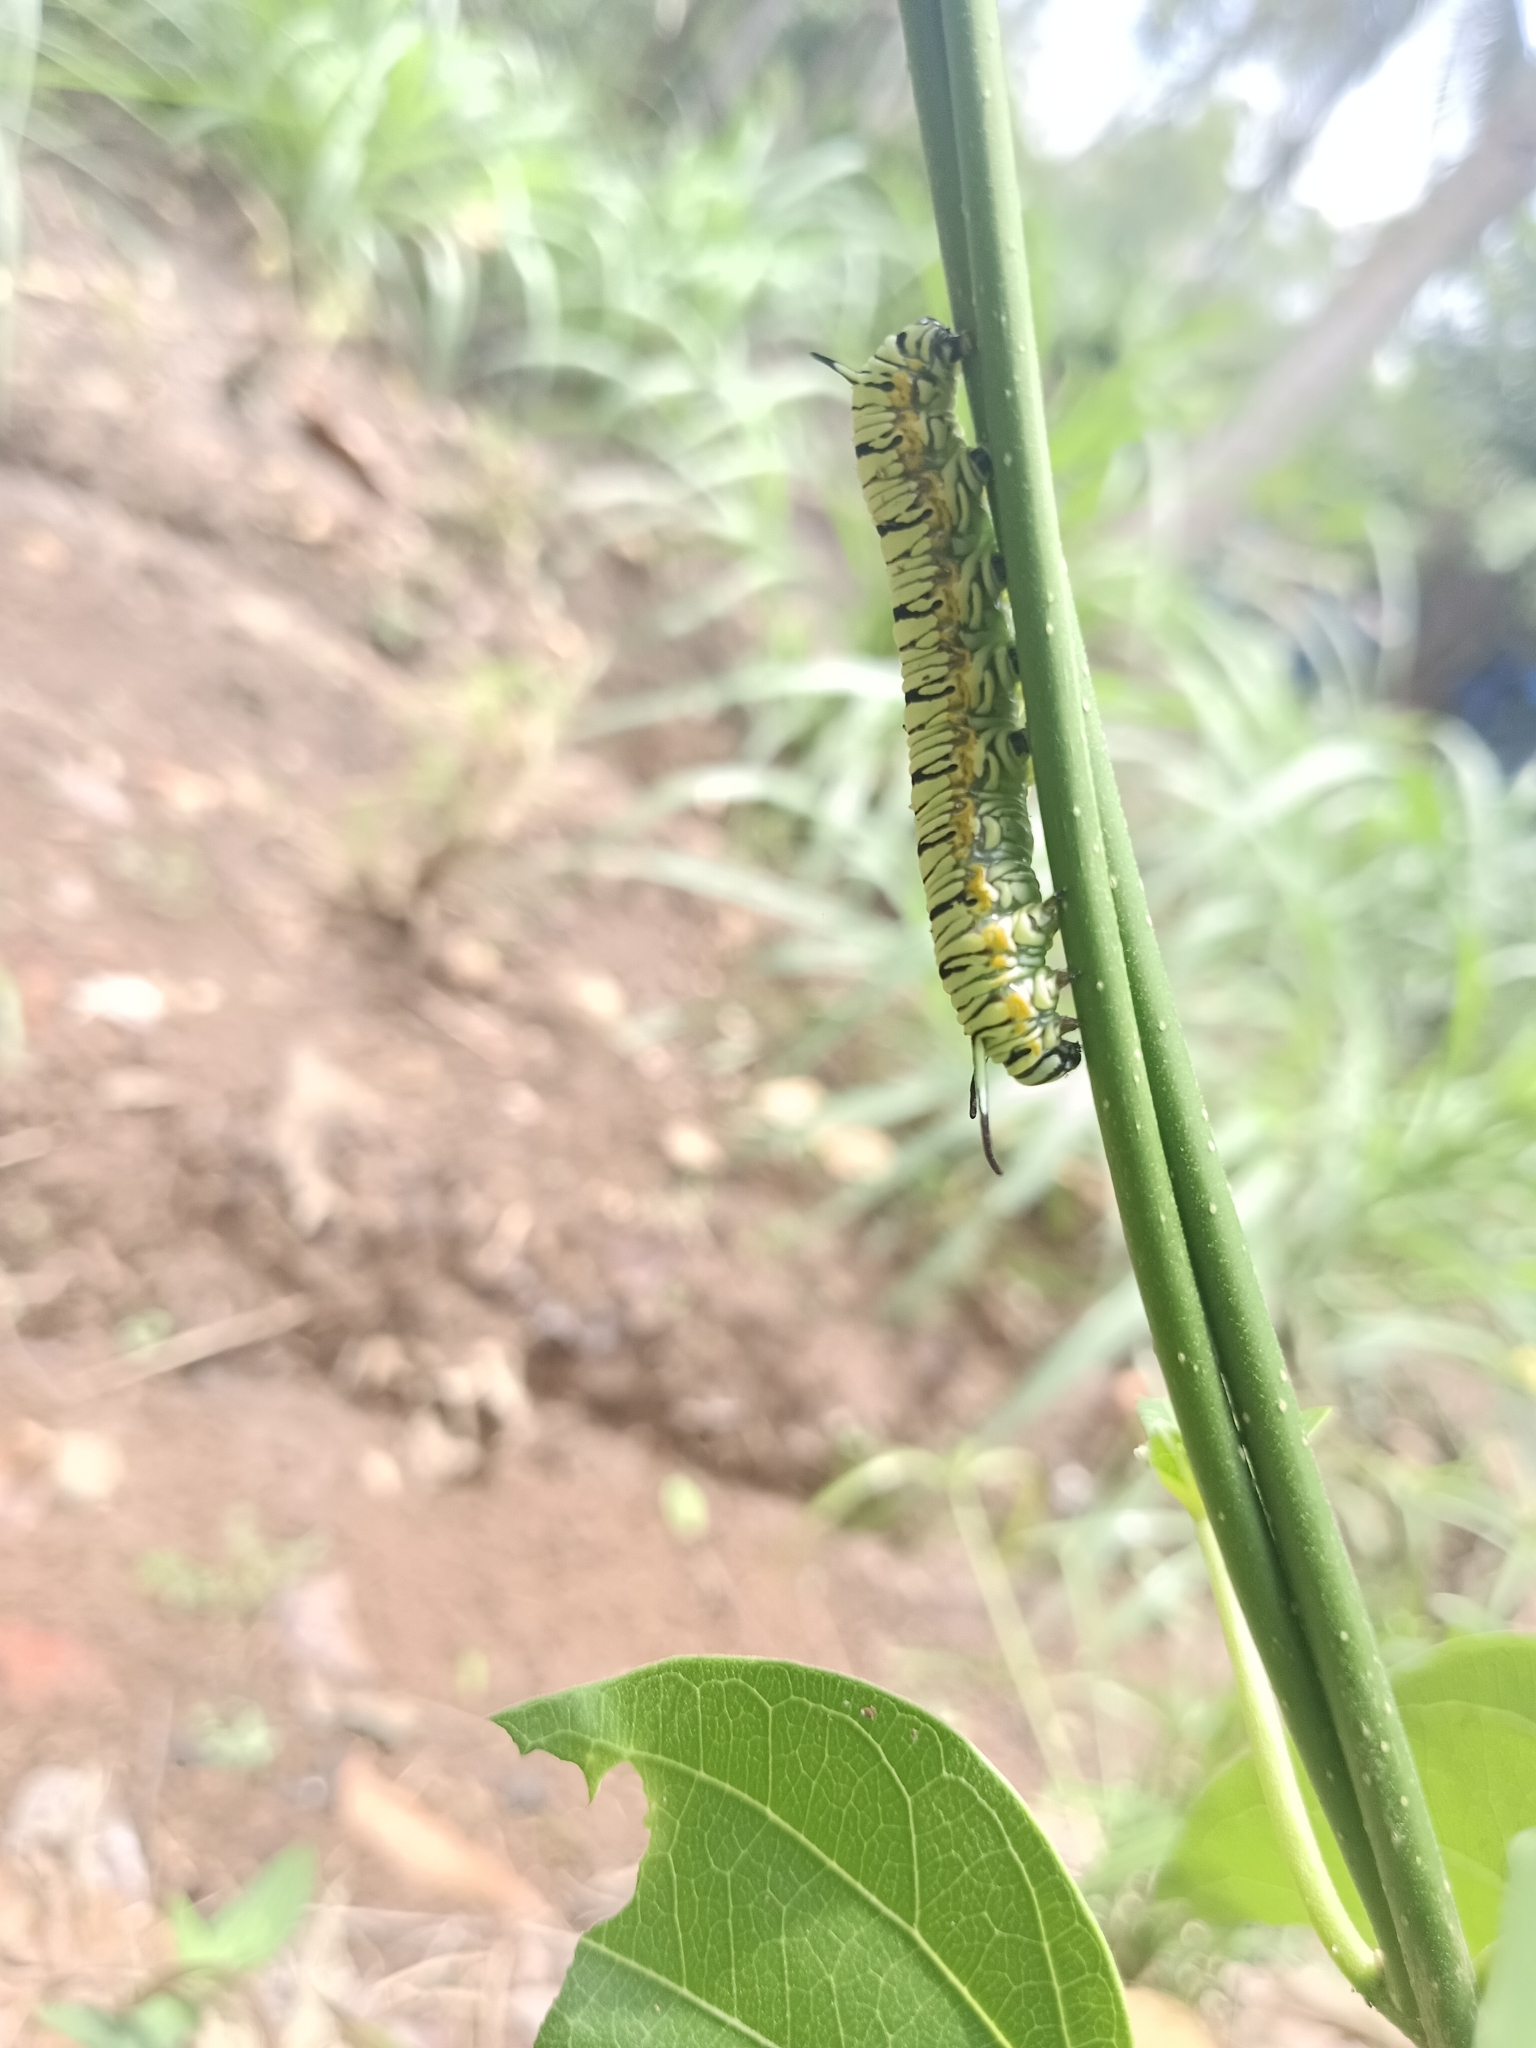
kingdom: Animalia
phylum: Arthropoda
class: Insecta
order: Lepidoptera
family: Nymphalidae
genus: Tirumala
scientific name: Tirumala limniace
